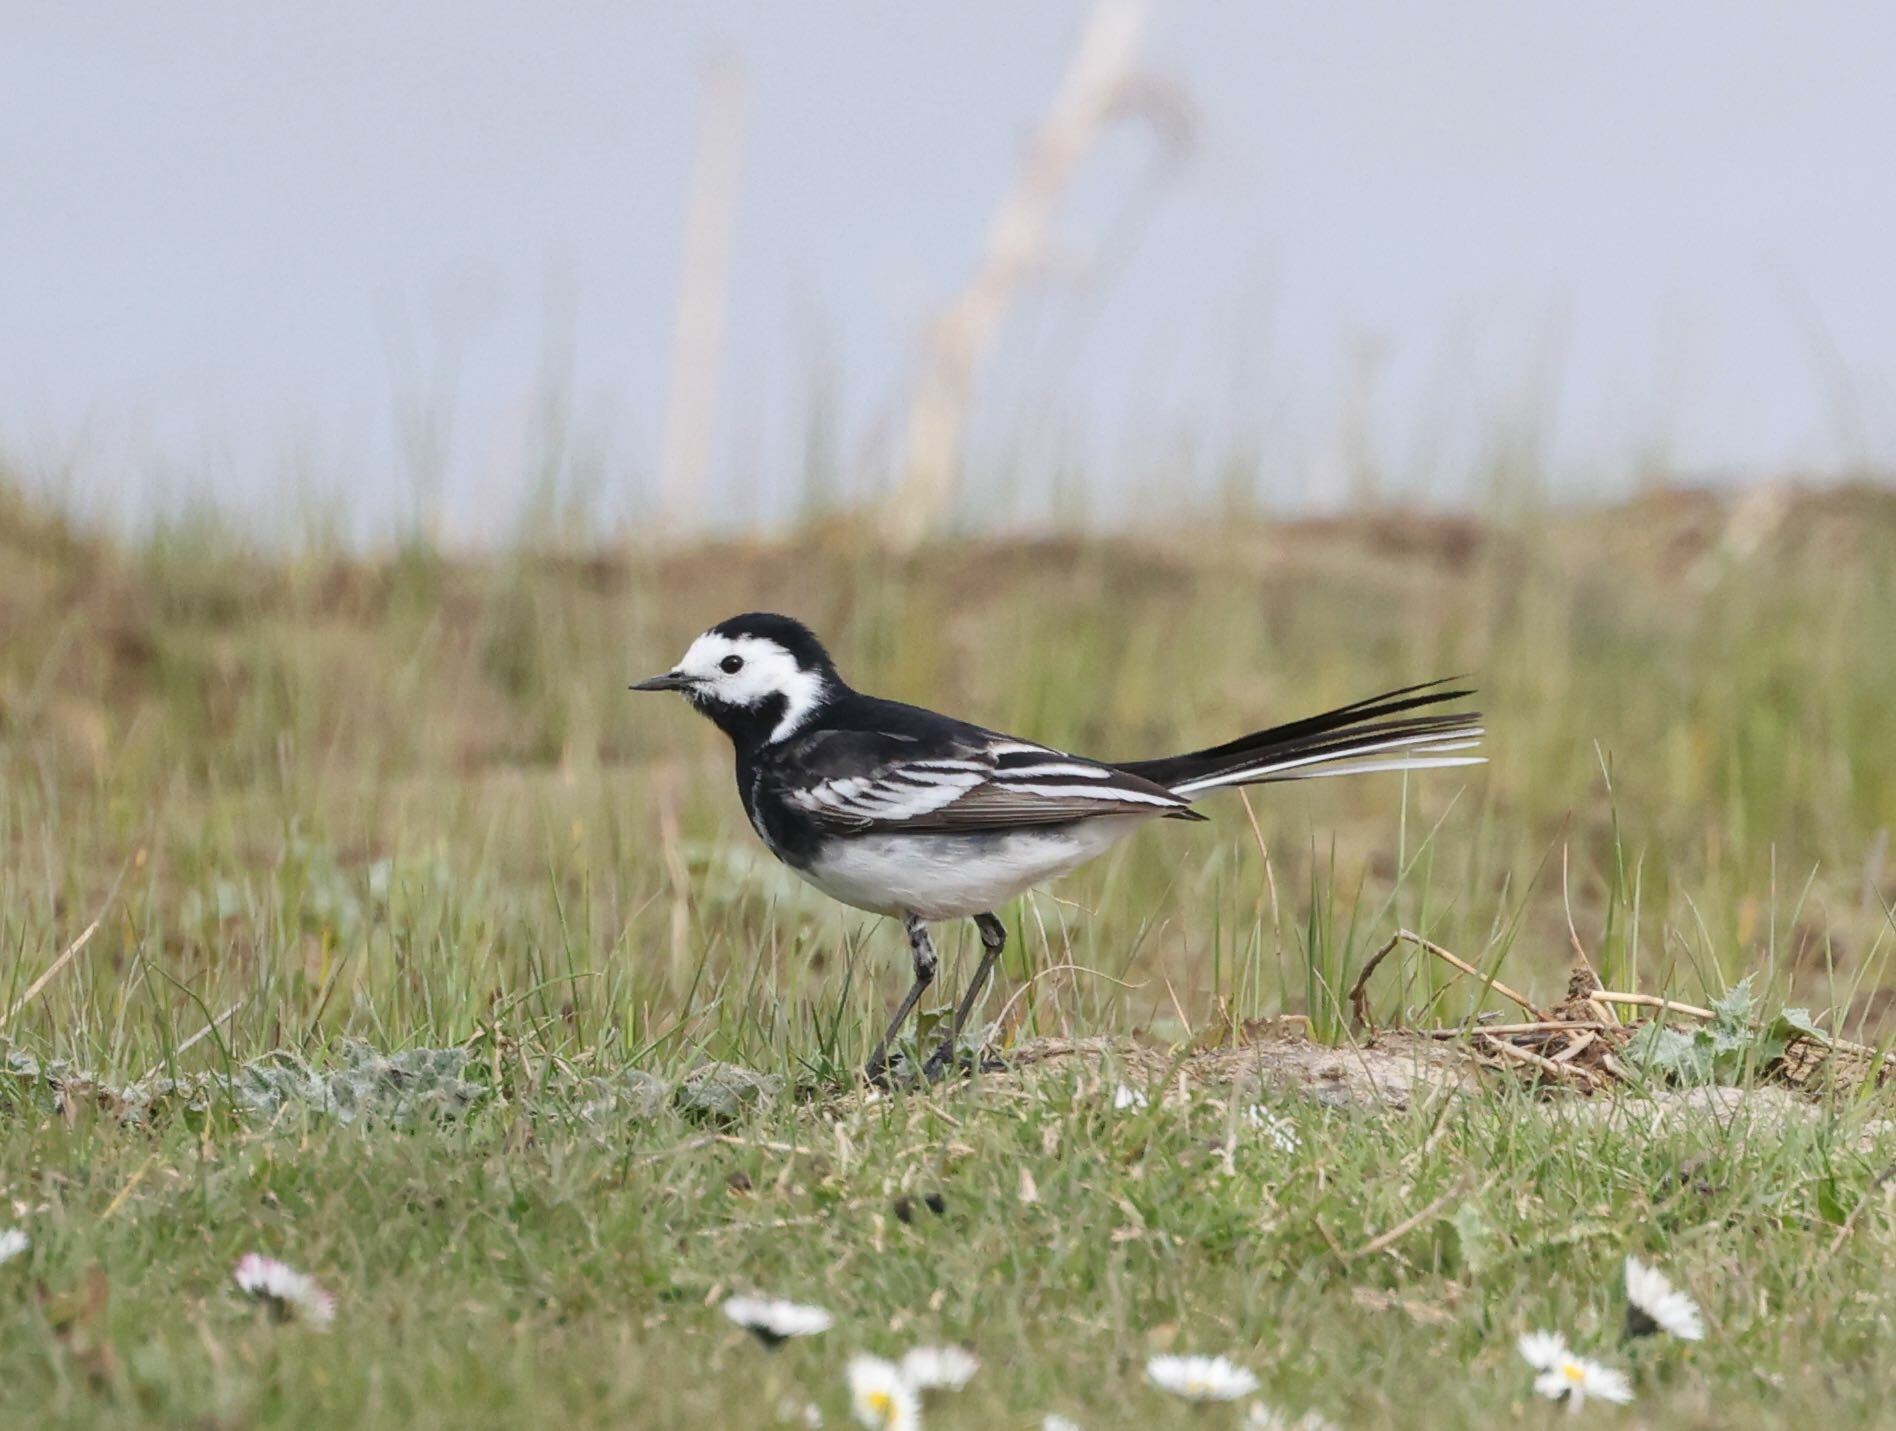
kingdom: Animalia
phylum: Chordata
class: Aves
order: Passeriformes
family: Motacillidae
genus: Motacilla
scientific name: Motacilla alba
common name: White wagtail
